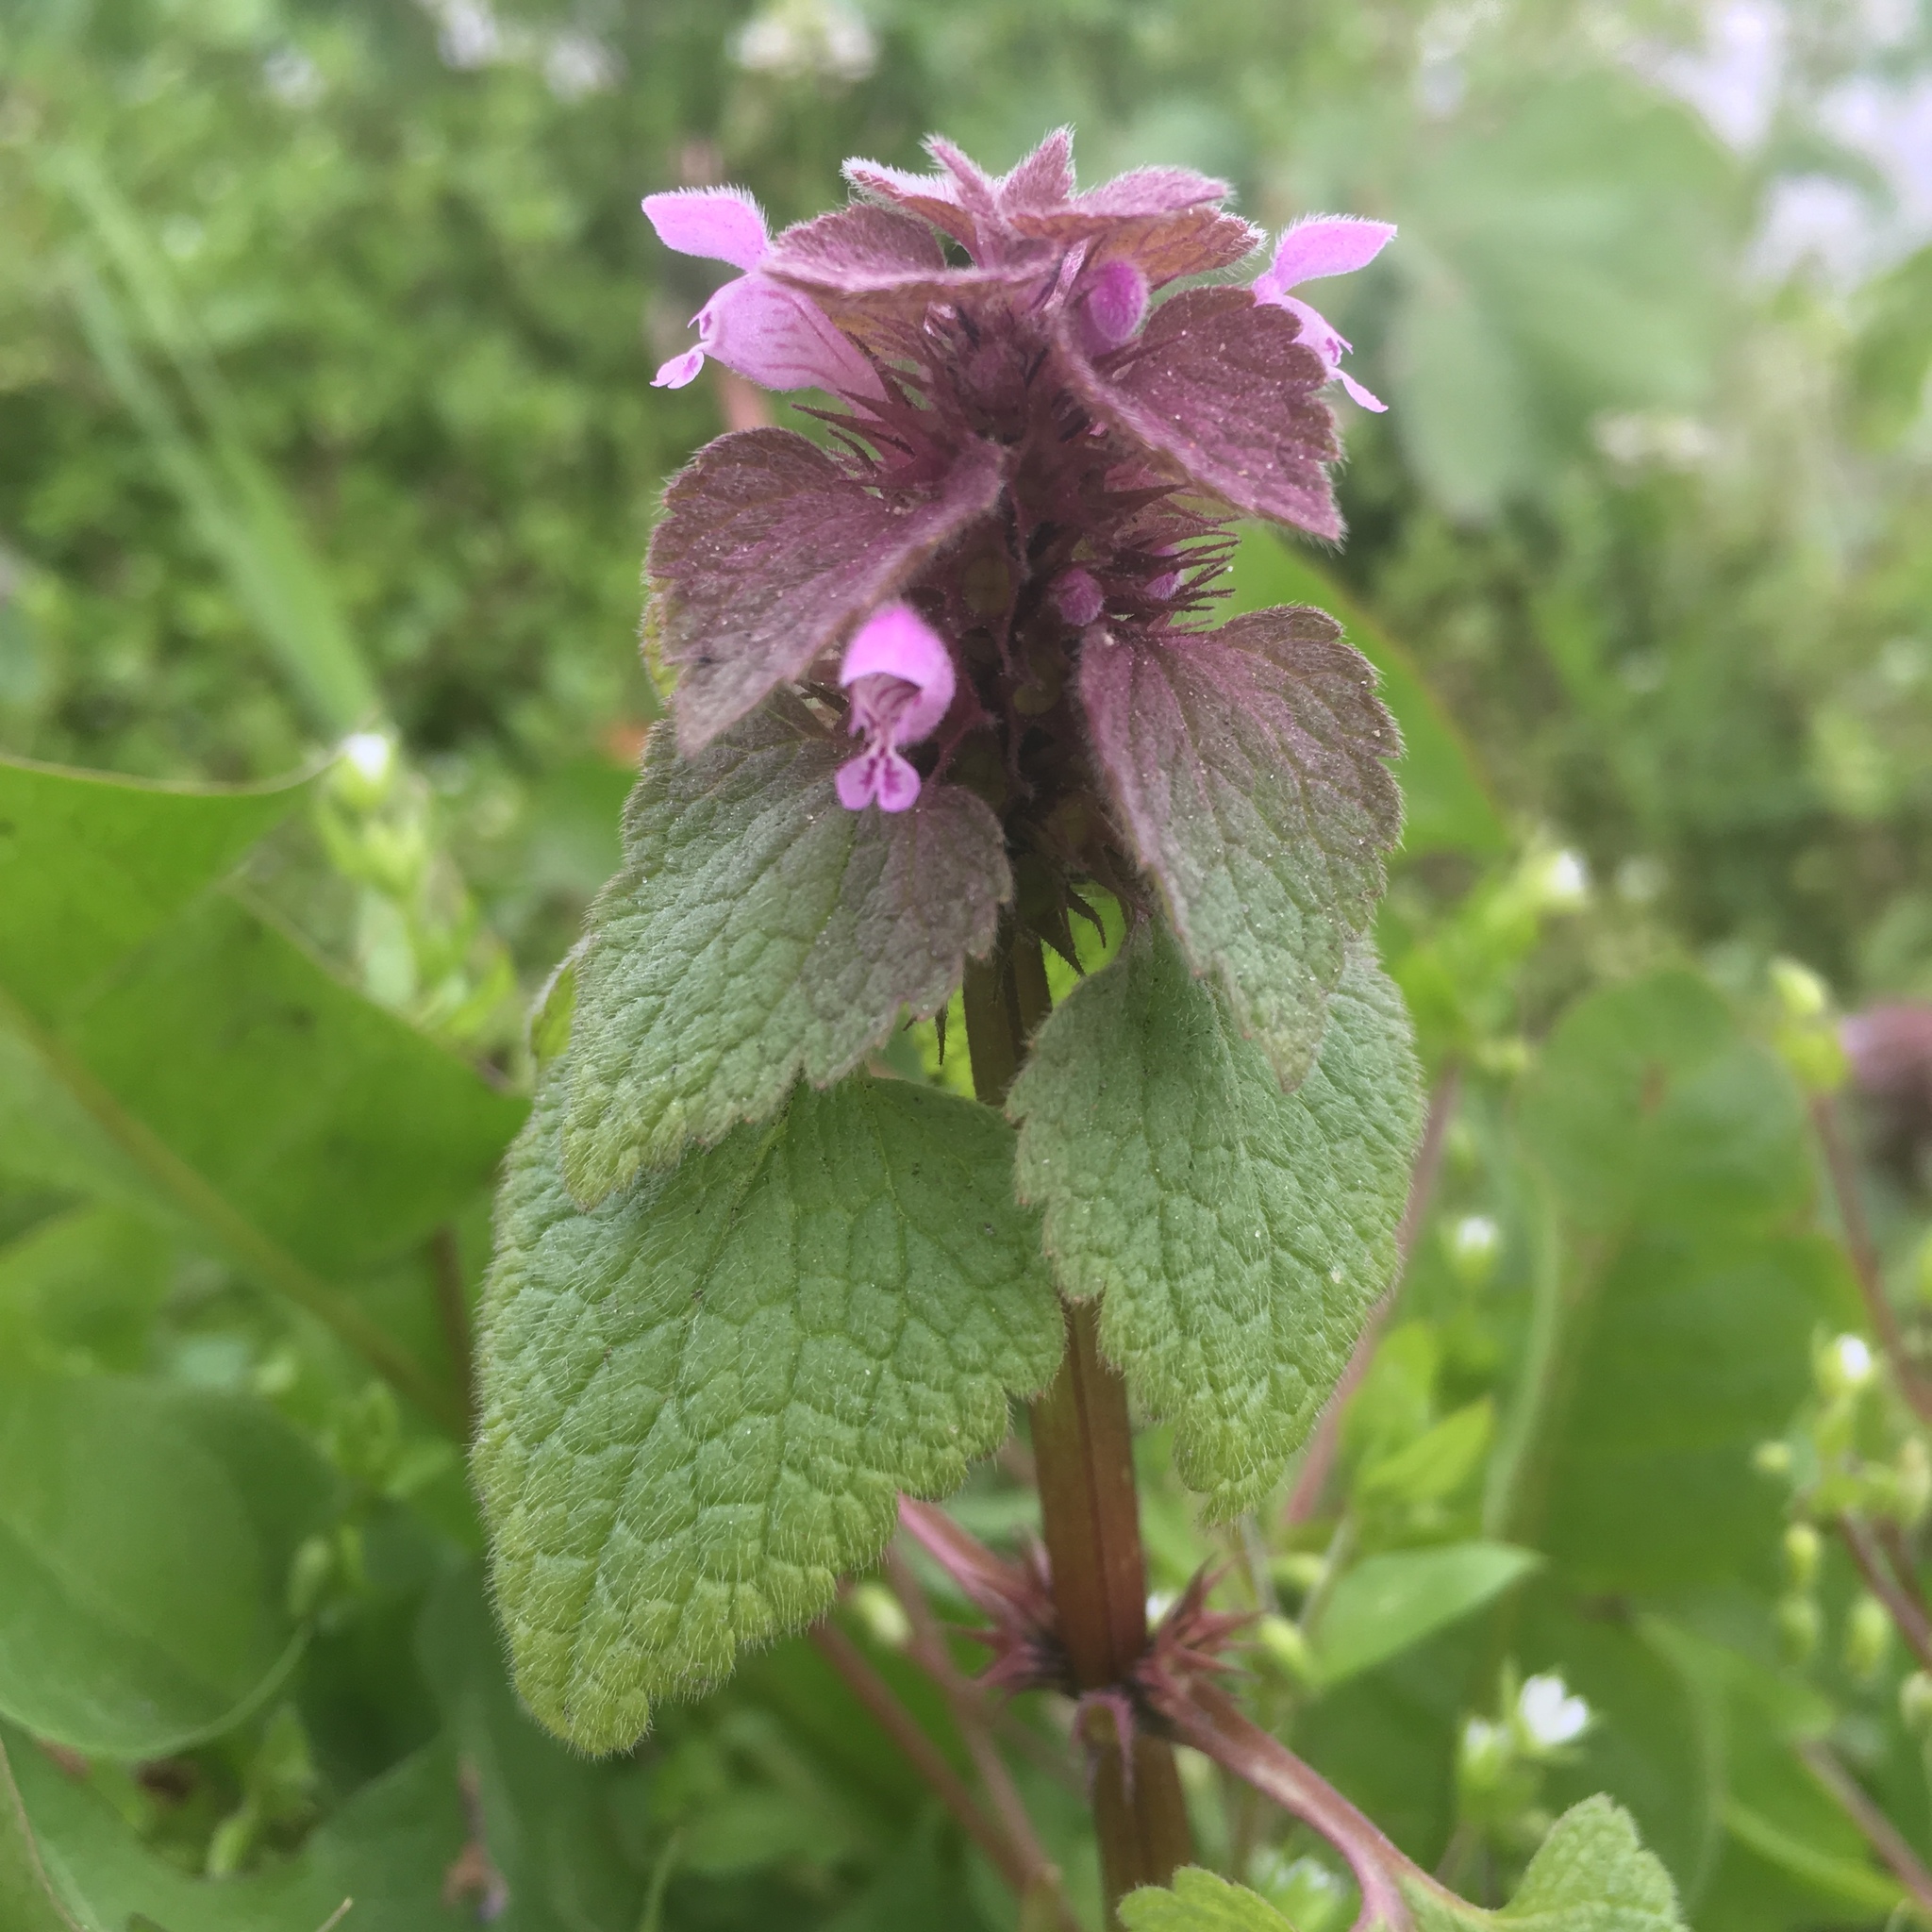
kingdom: Plantae
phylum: Tracheophyta
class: Magnoliopsida
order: Lamiales
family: Lamiaceae
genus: Lamium
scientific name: Lamium purpureum
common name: Red dead-nettle
